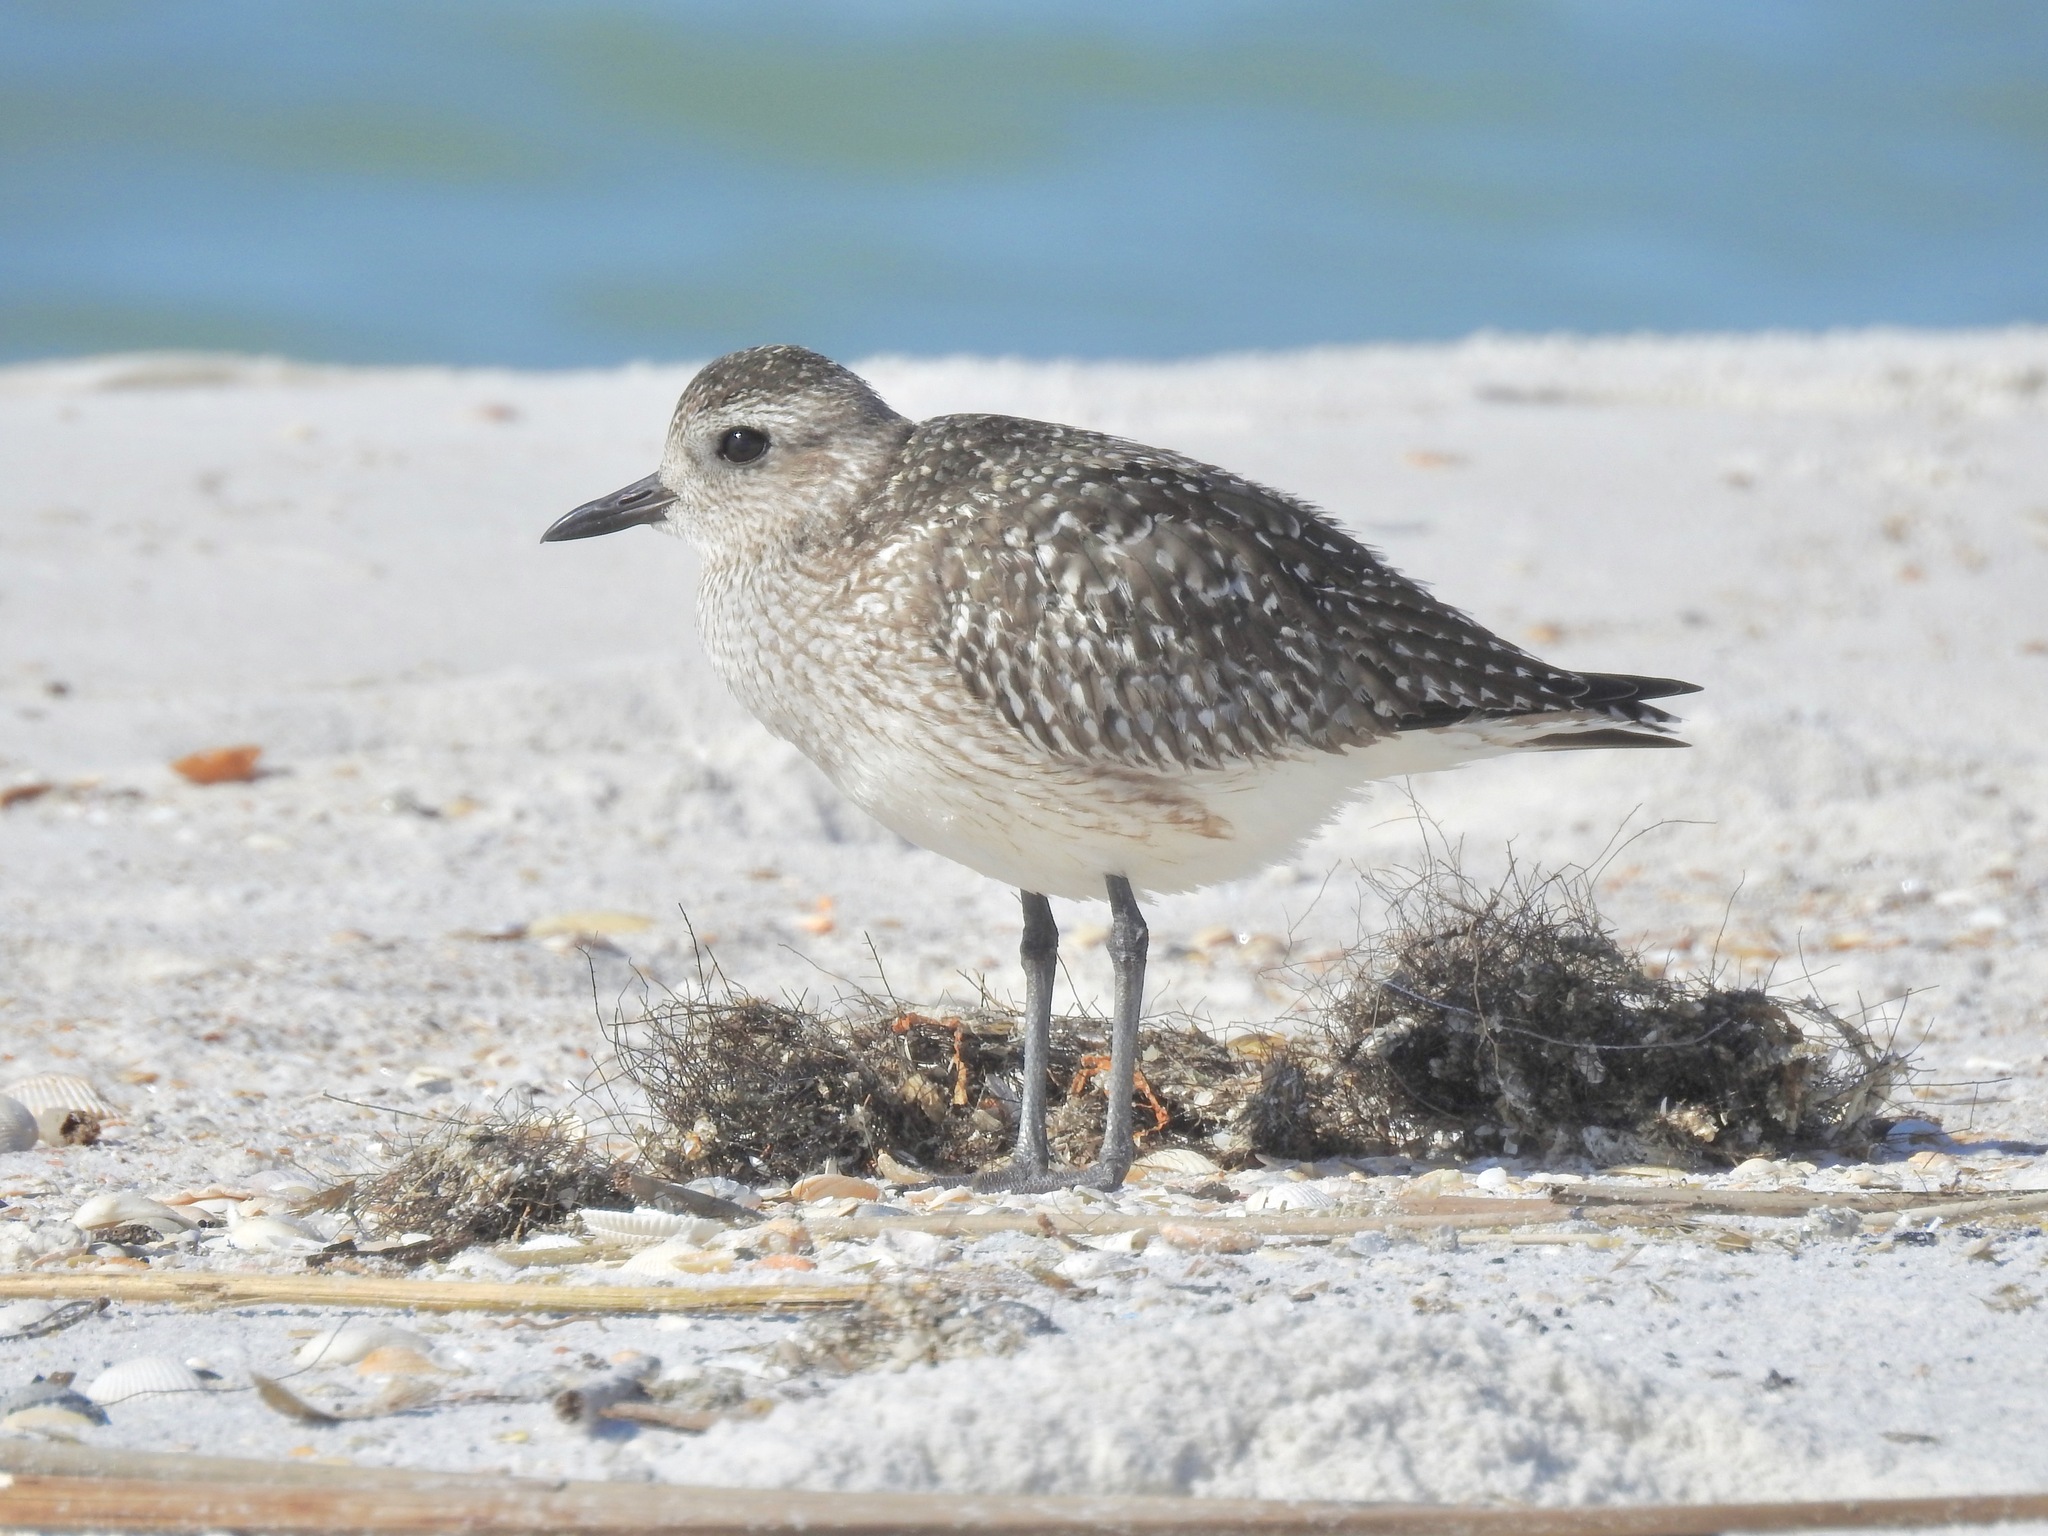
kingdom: Animalia
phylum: Chordata
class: Aves
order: Charadriiformes
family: Charadriidae
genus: Pluvialis
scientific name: Pluvialis squatarola
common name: Grey plover
